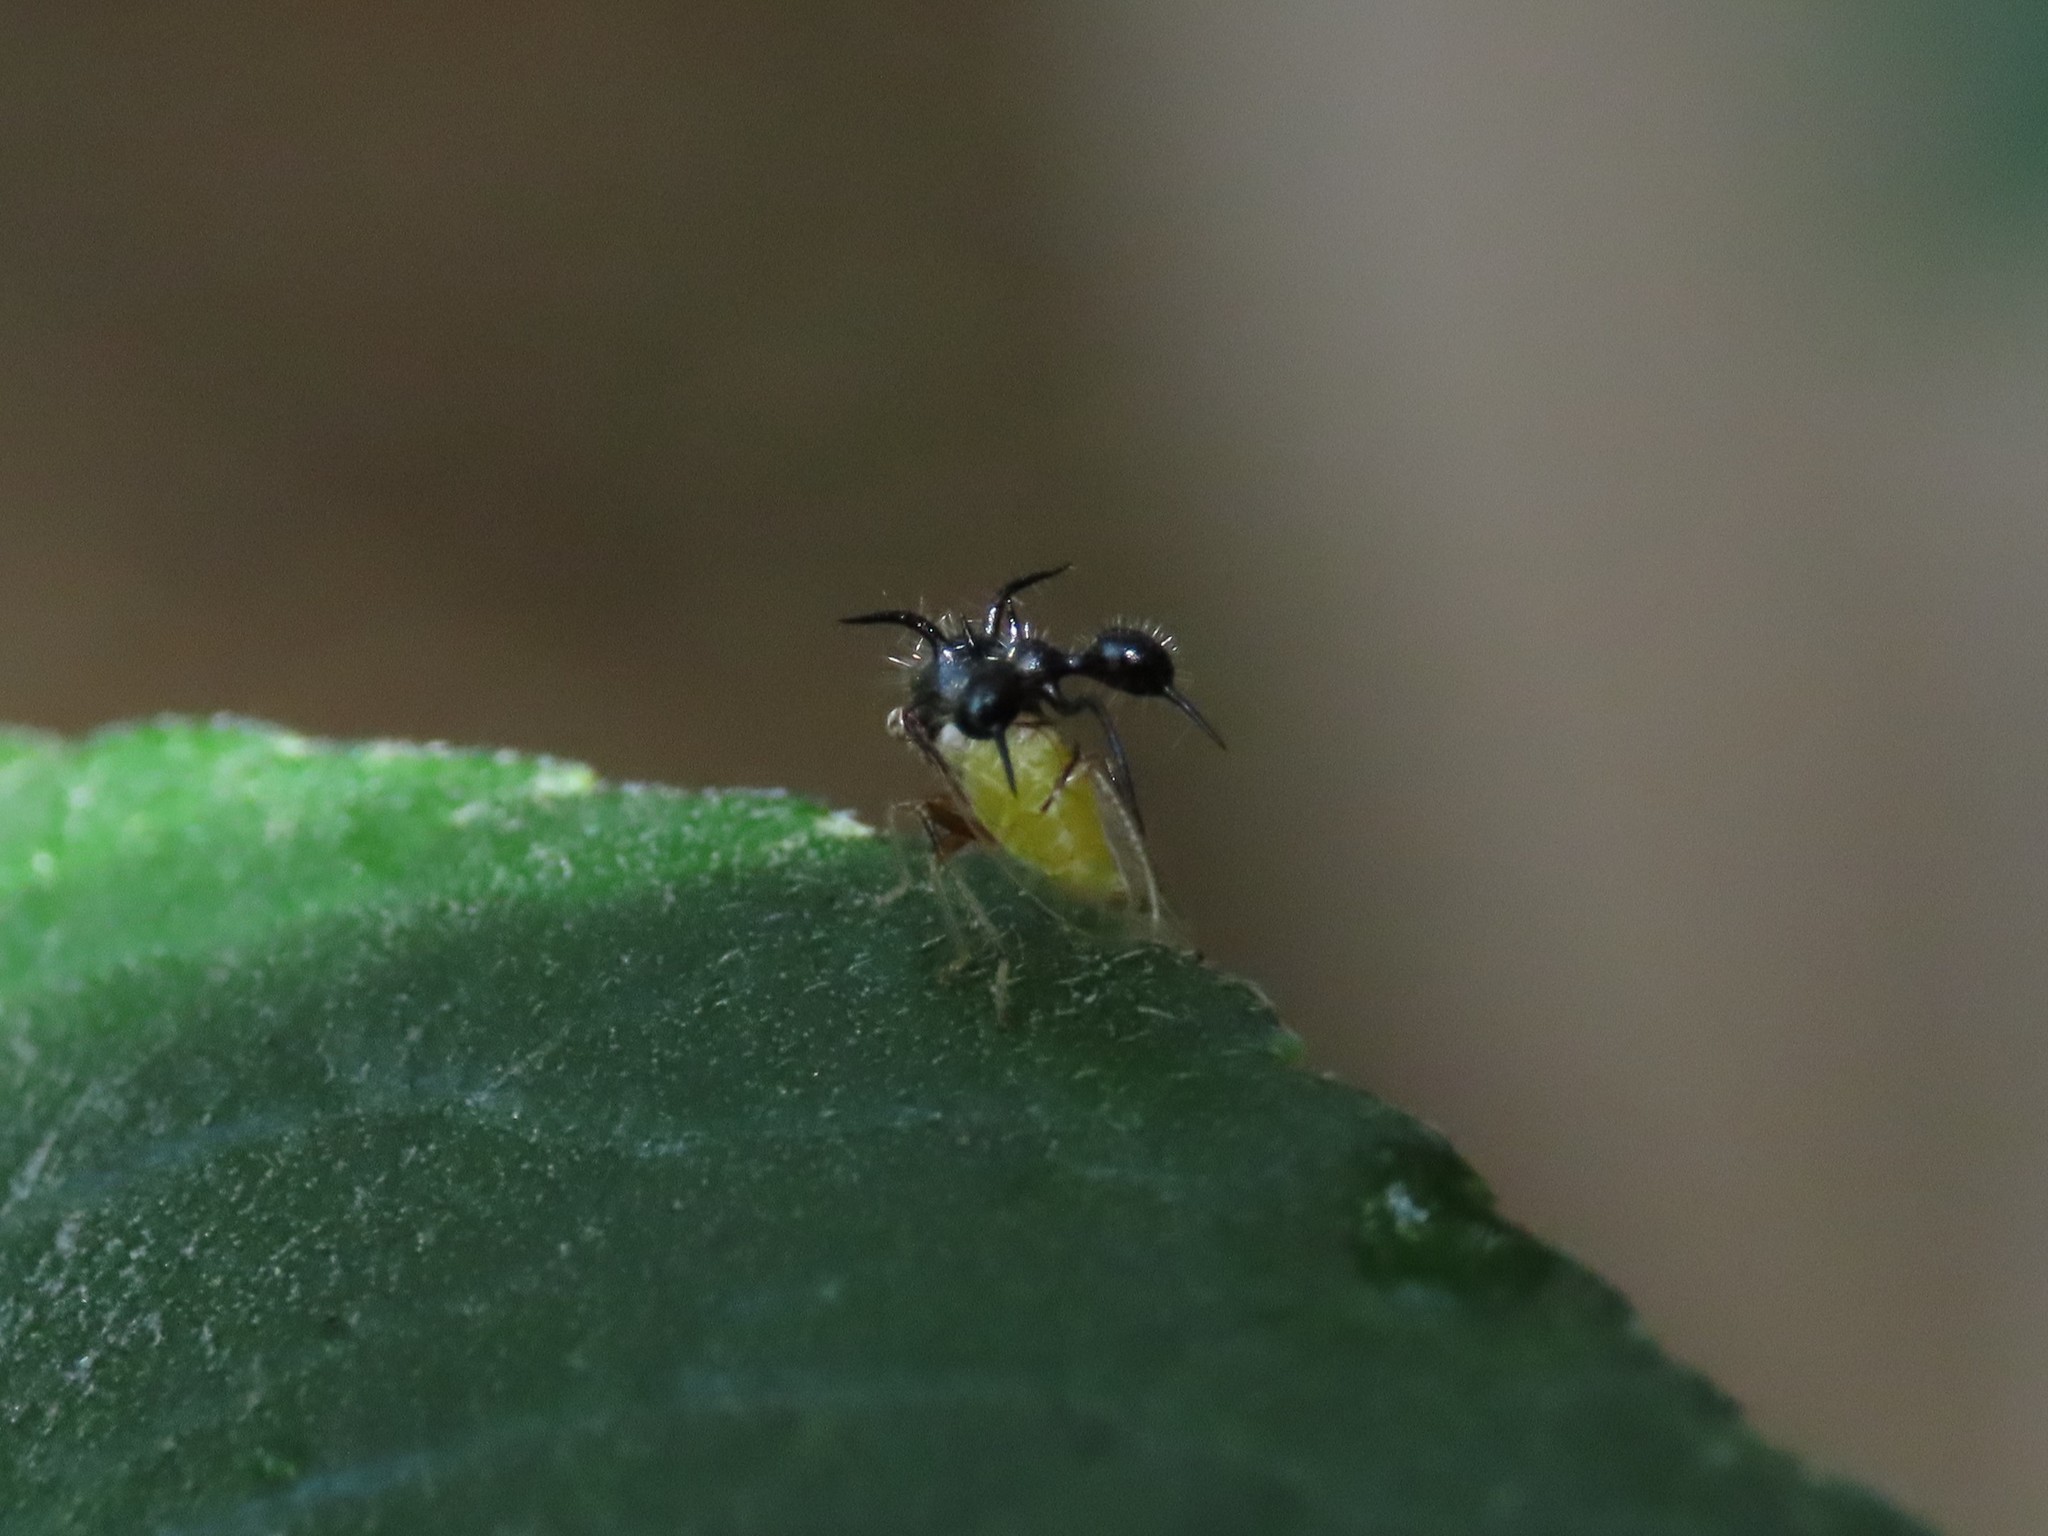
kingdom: Animalia
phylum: Arthropoda
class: Insecta
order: Hemiptera
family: Membracidae
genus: Cyphonia
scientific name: Cyphonia clavata
